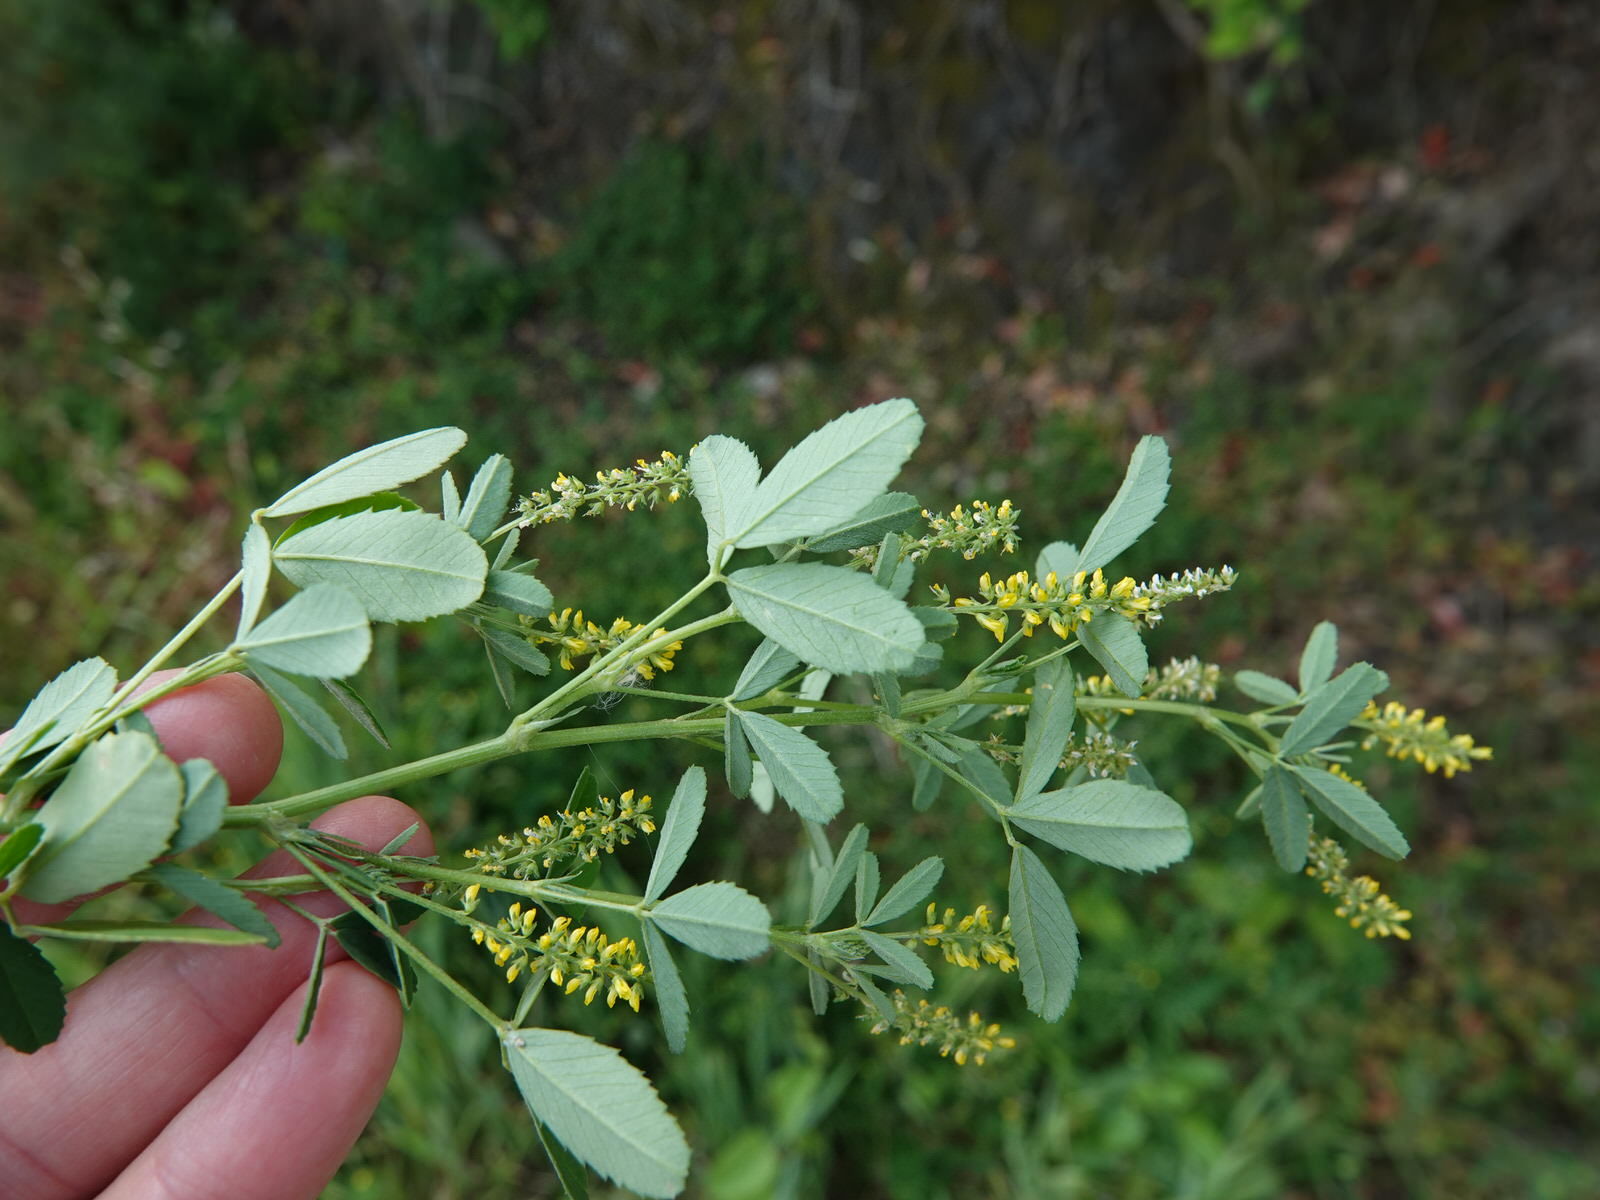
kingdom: Plantae
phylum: Tracheophyta
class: Magnoliopsida
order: Fabales
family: Fabaceae
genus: Melilotus
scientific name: Melilotus indicus
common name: Small melilot
